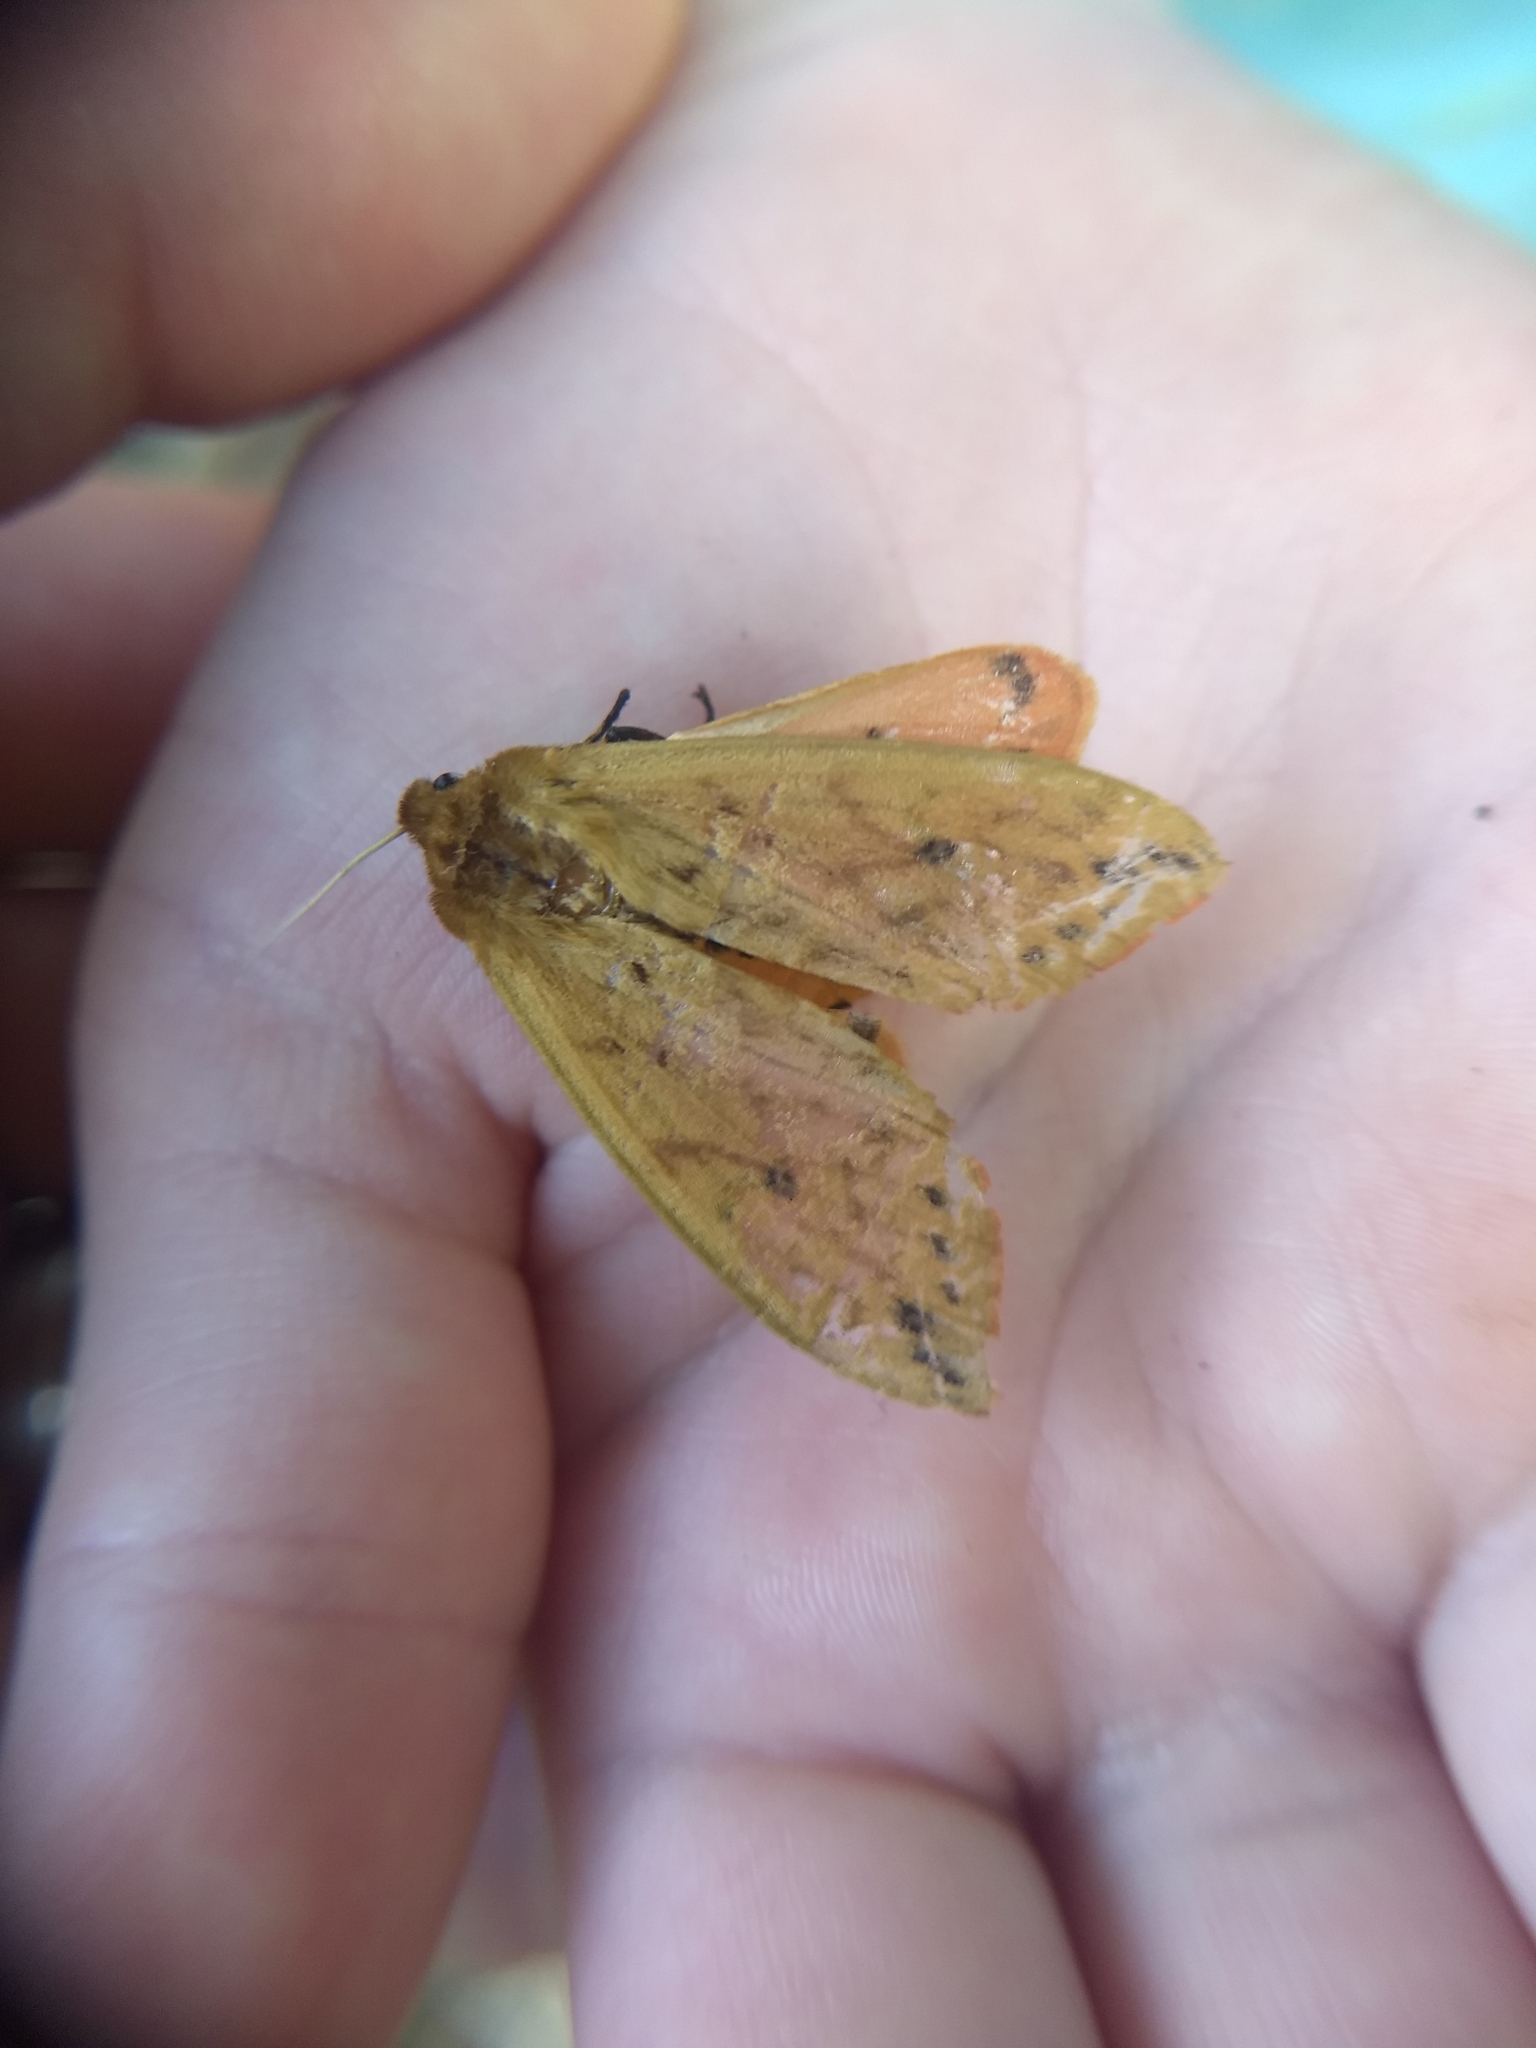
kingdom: Animalia
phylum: Arthropoda
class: Insecta
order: Lepidoptera
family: Erebidae
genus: Pyrrharctia
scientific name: Pyrrharctia isabella
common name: Isabella tiger moth
